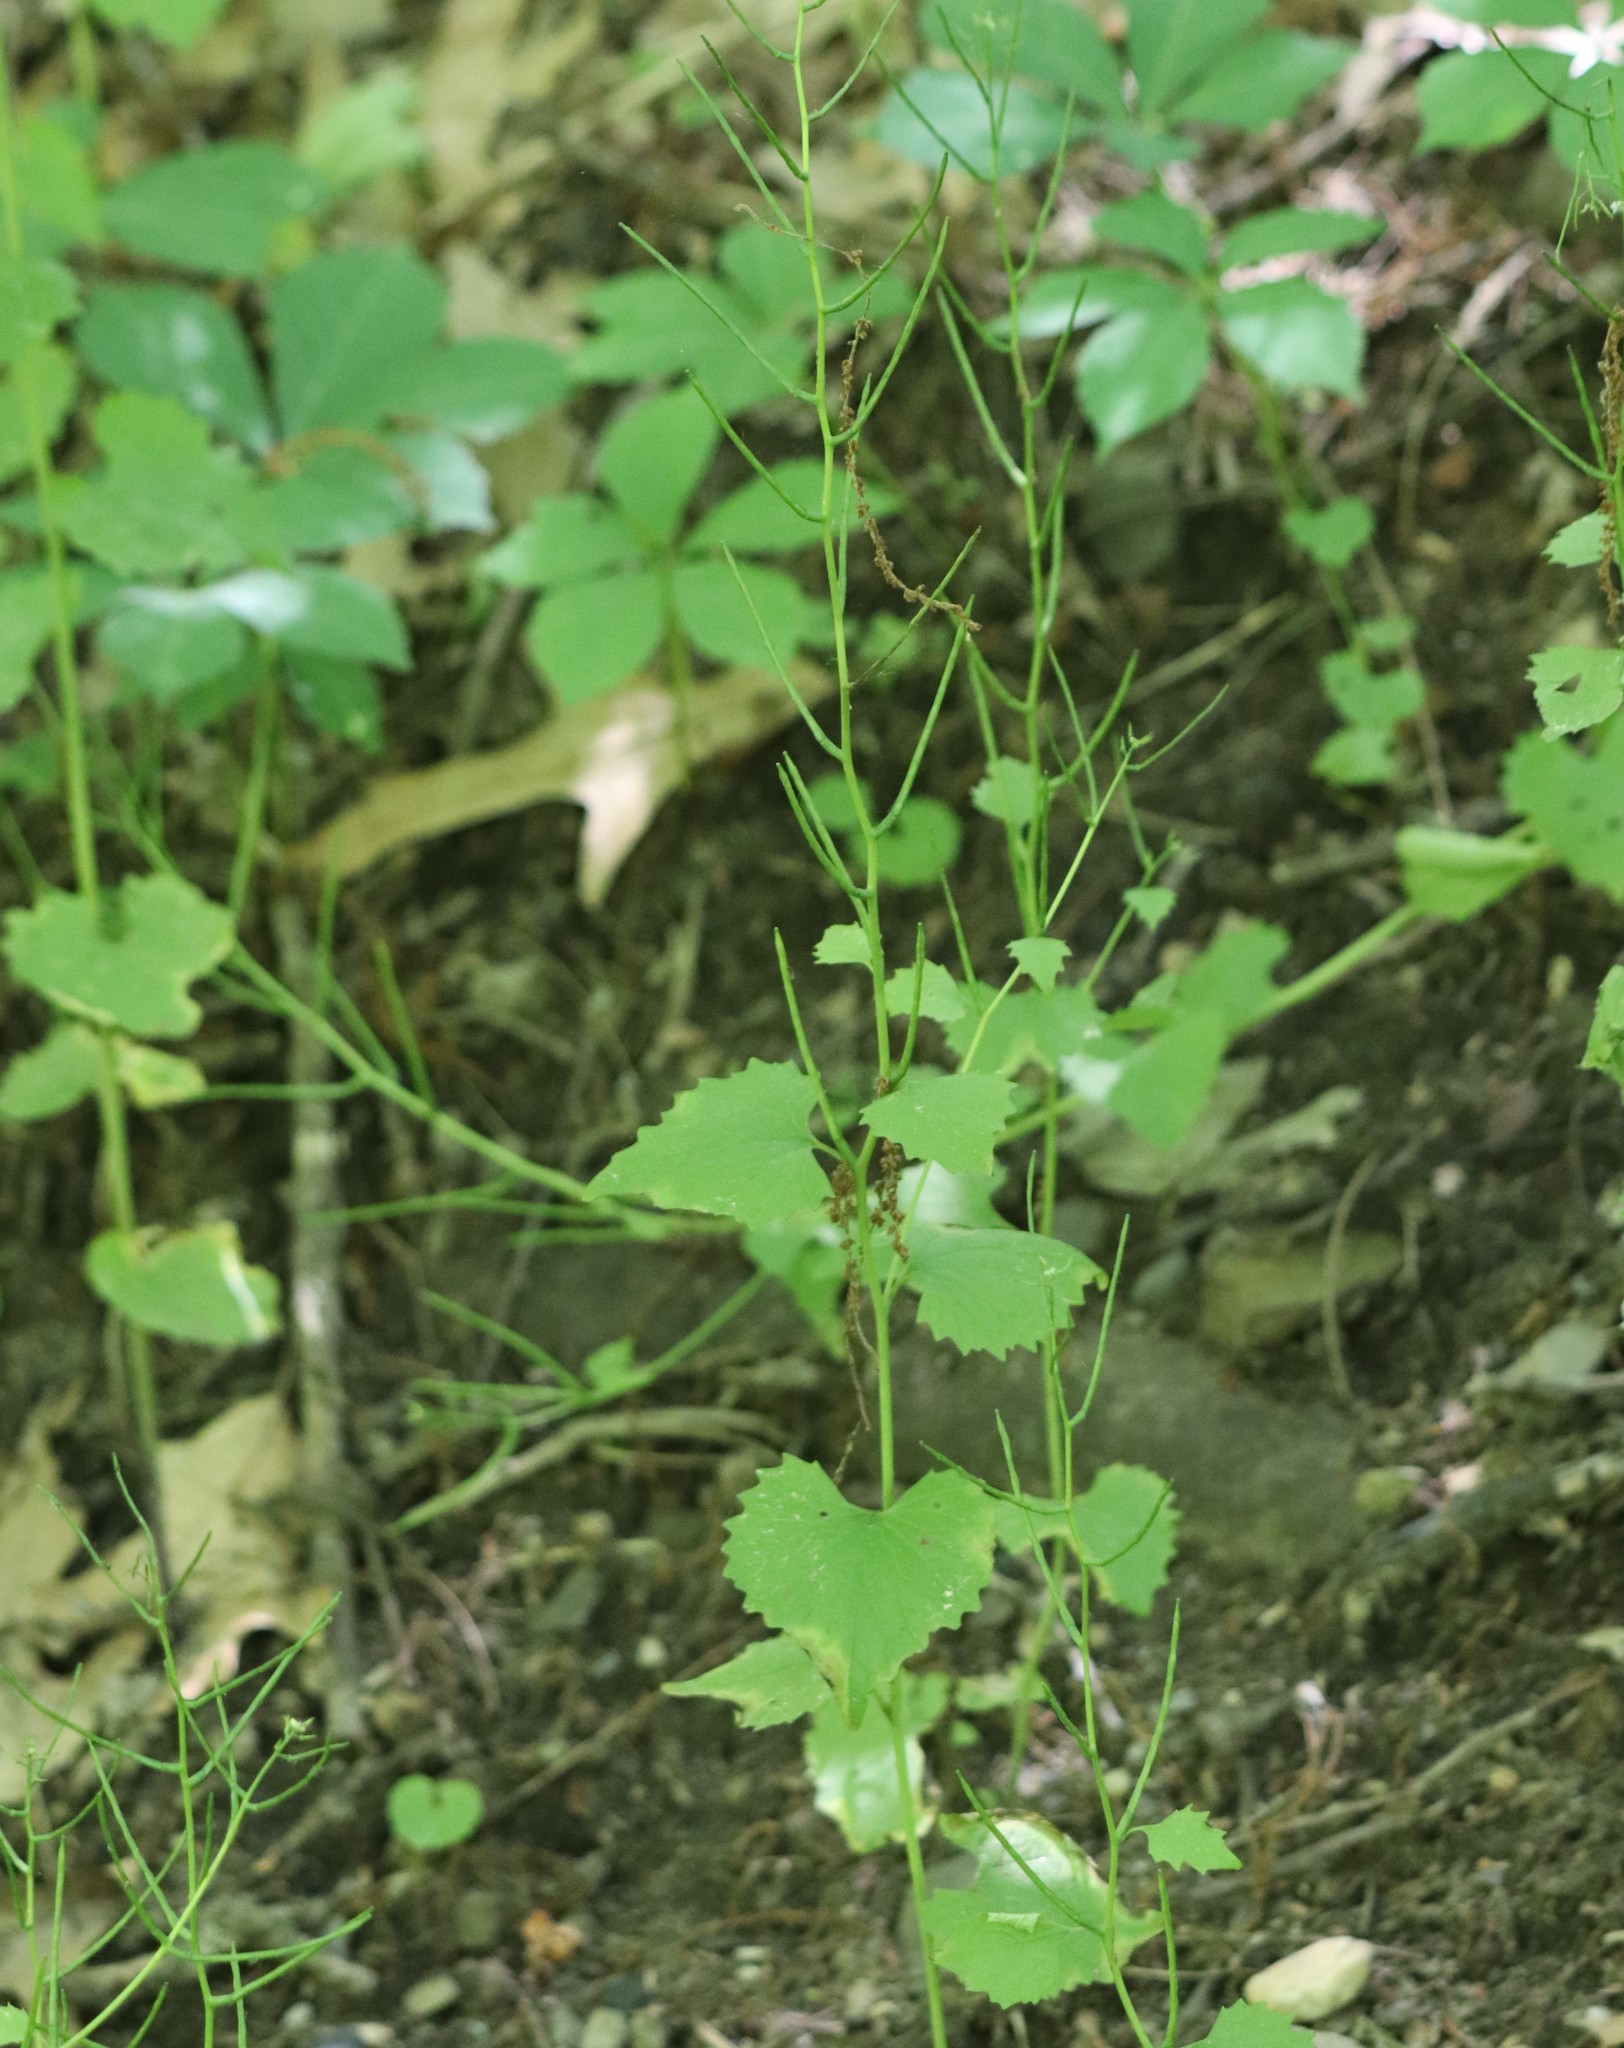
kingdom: Plantae
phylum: Tracheophyta
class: Magnoliopsida
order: Brassicales
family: Brassicaceae
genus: Alliaria
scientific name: Alliaria petiolata
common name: Garlic mustard
